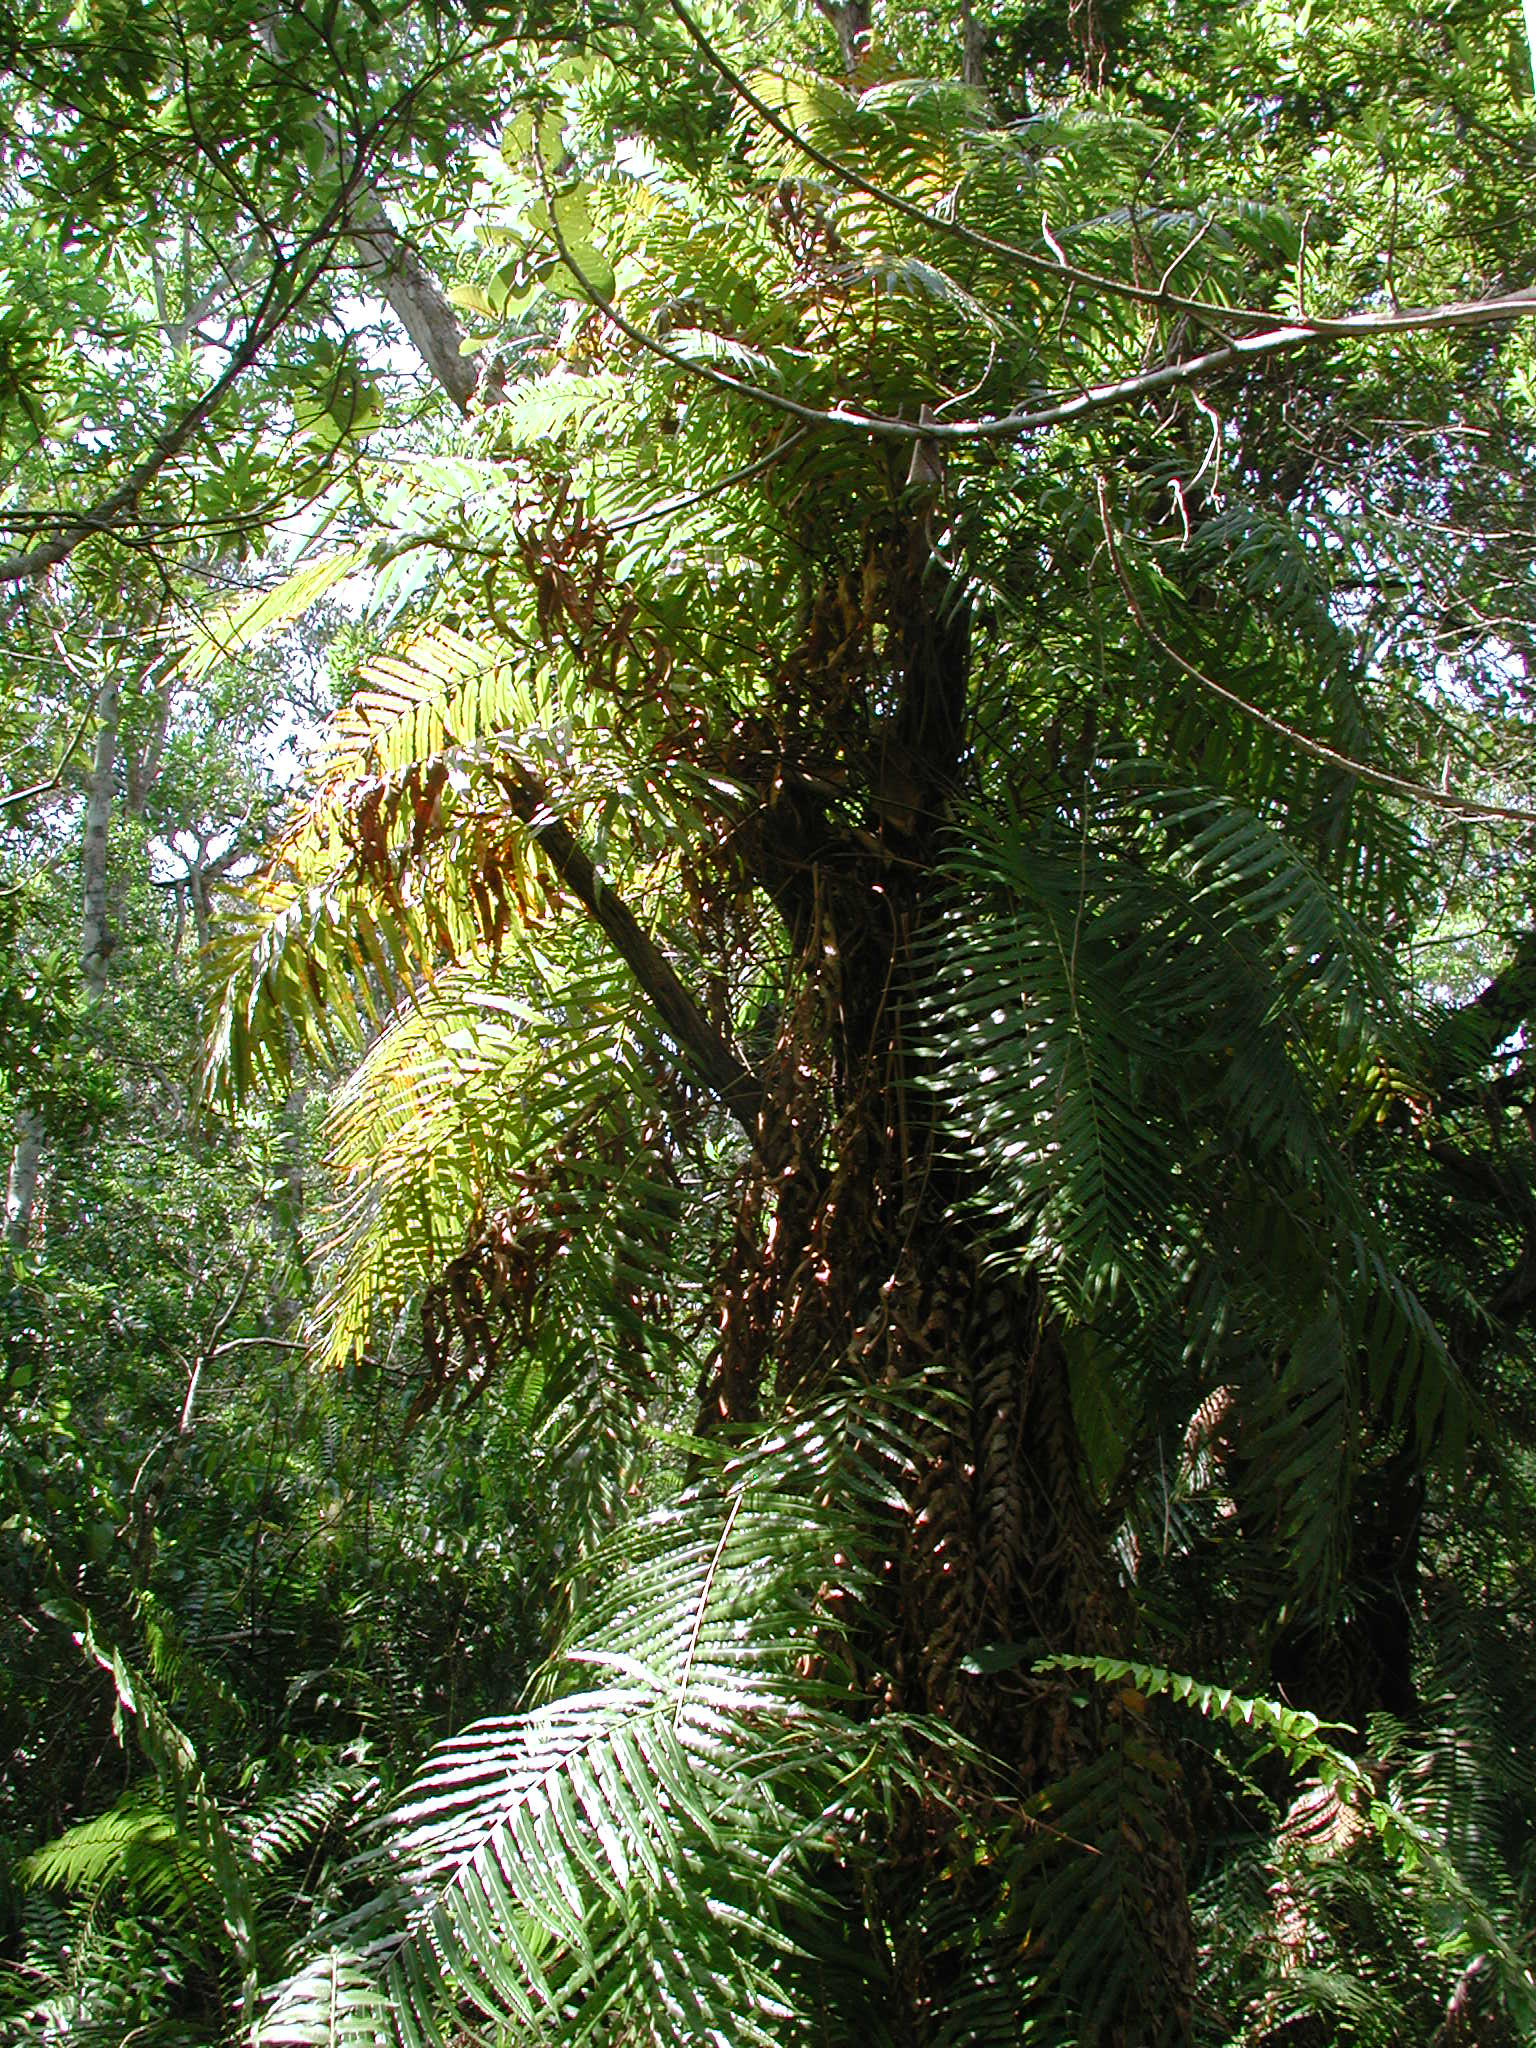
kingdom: Plantae
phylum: Tracheophyta
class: Polypodiopsida
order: Polypodiales
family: Blechnaceae
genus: Stenochlaena
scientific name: Stenochlaena tenuifolia
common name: Giant vine fern
